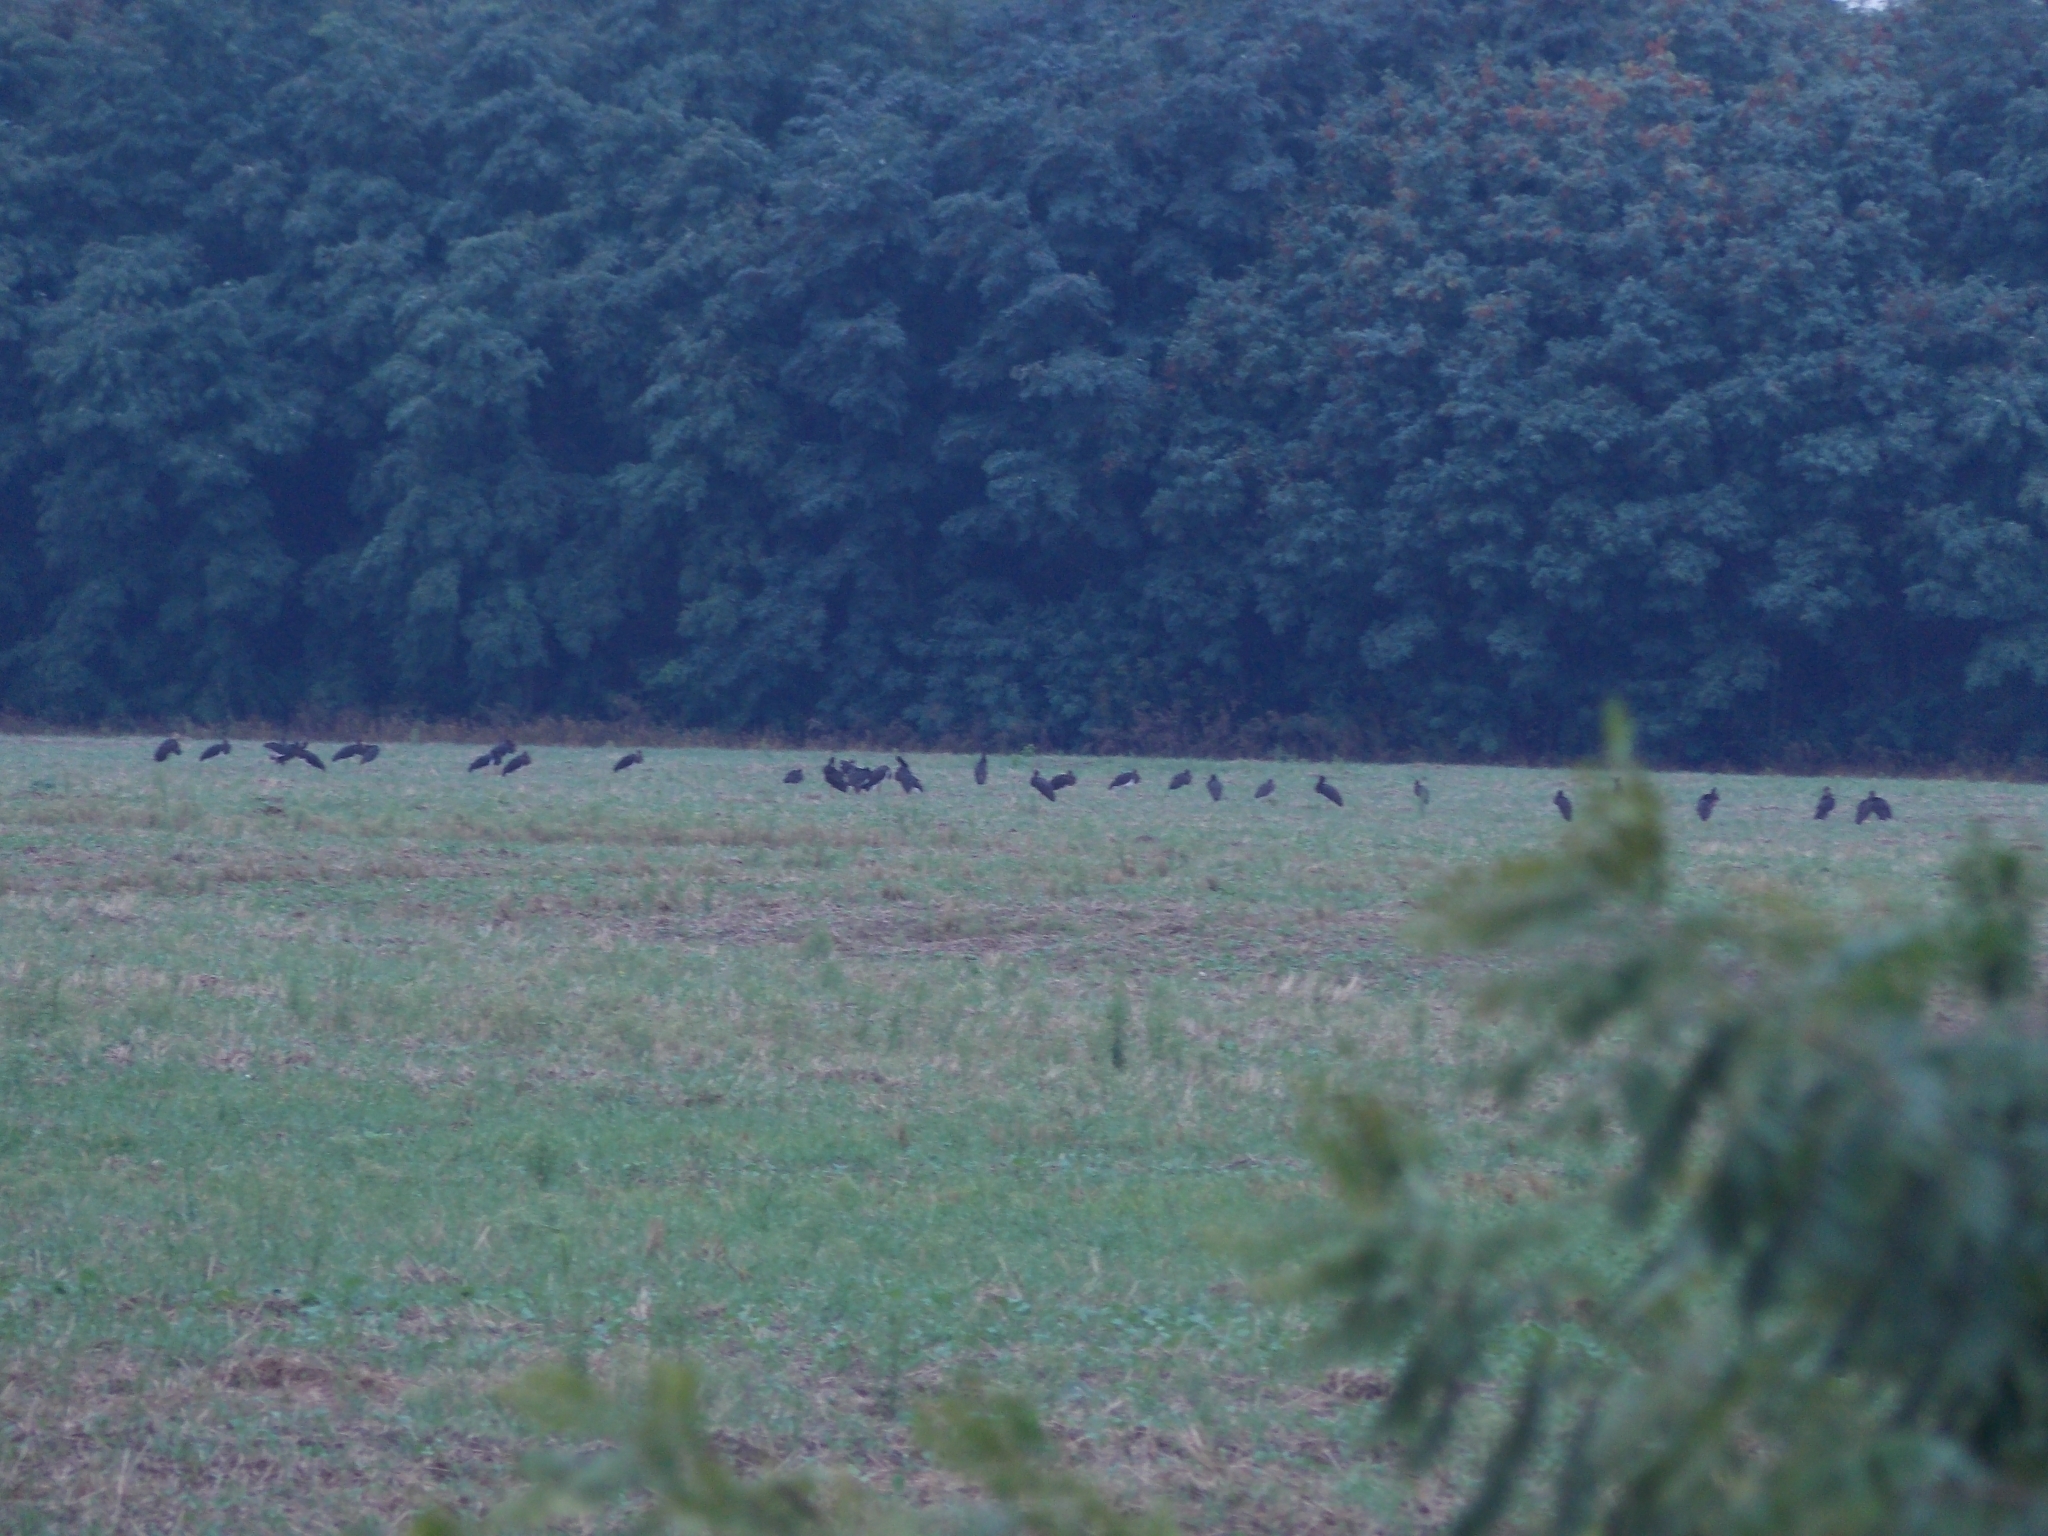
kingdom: Animalia
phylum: Chordata
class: Aves
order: Ciconiiformes
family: Ciconiidae
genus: Ciconia
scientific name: Ciconia nigra
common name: Black stork
